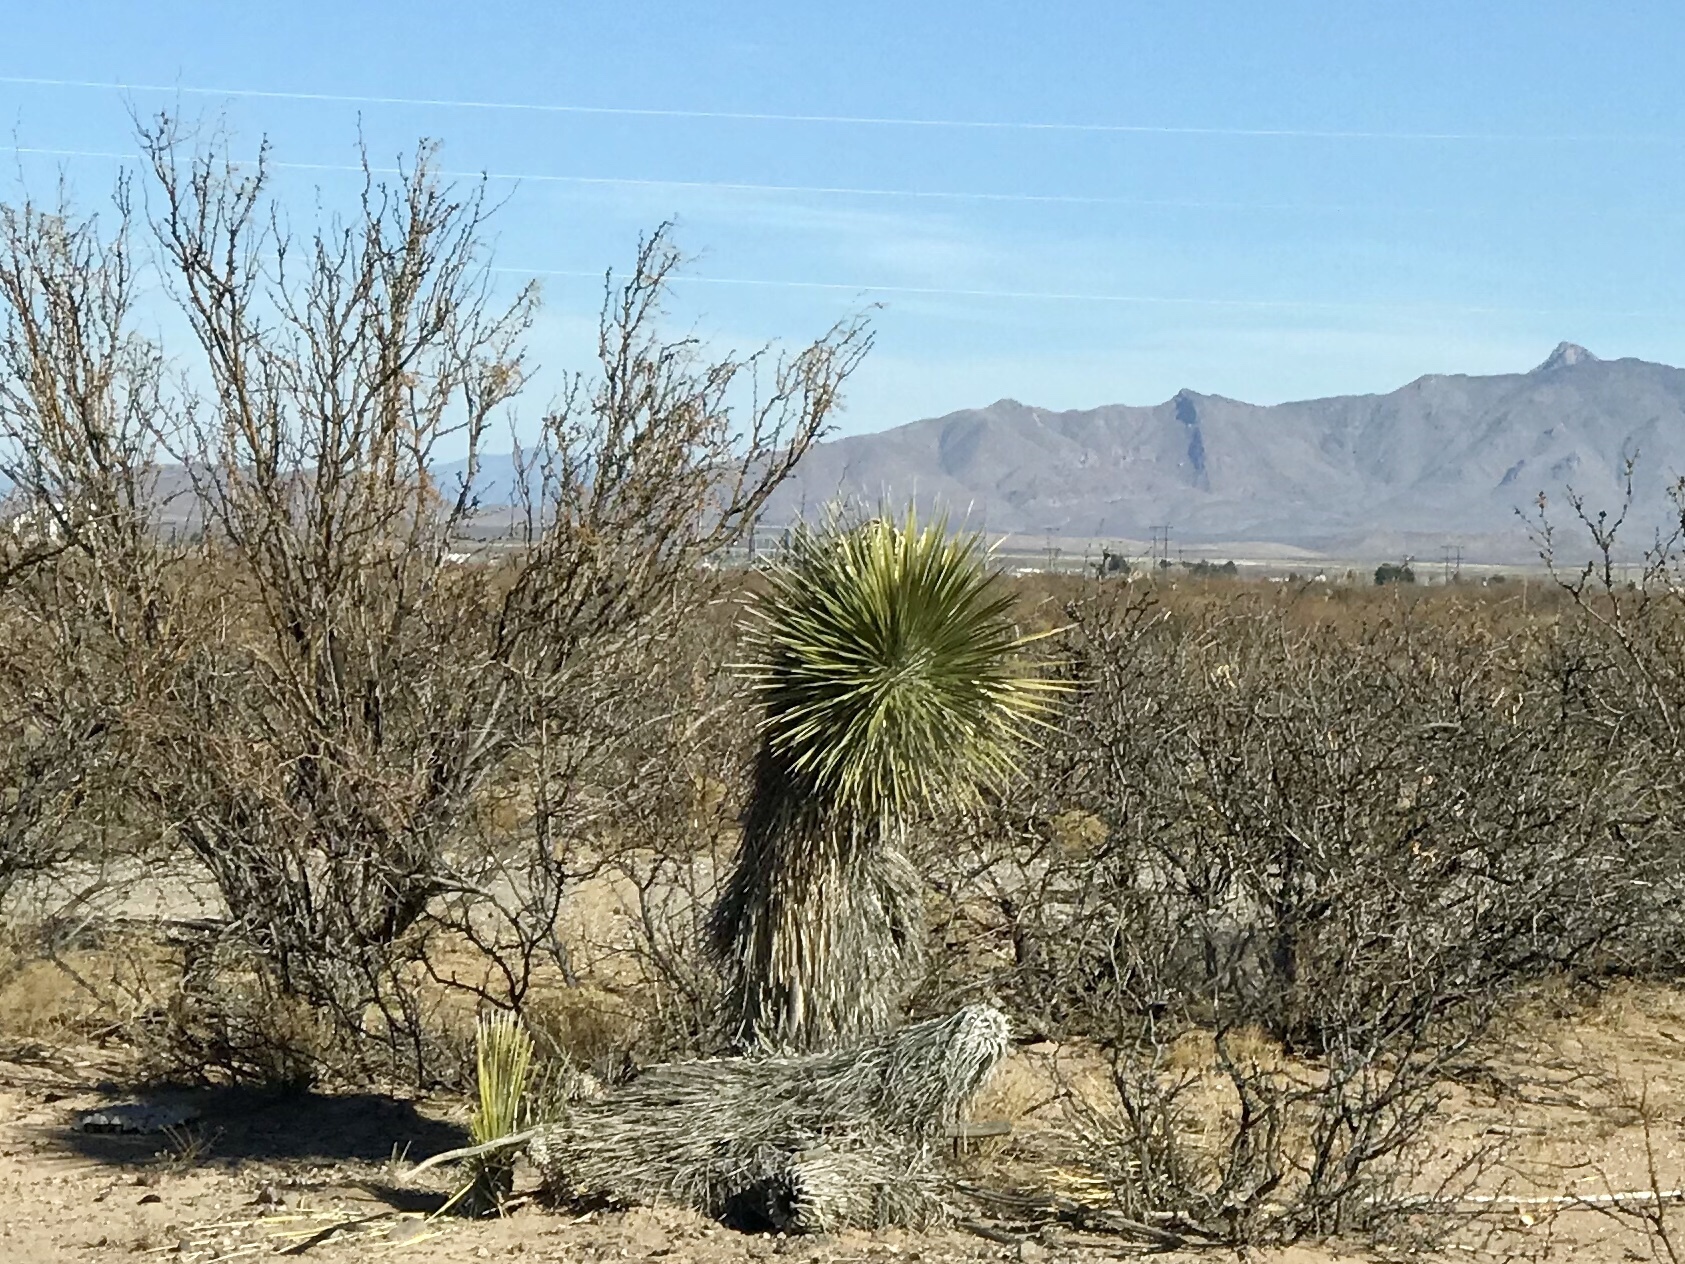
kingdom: Plantae
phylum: Tracheophyta
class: Liliopsida
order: Asparagales
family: Asparagaceae
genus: Yucca
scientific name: Yucca elata
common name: Palmella
